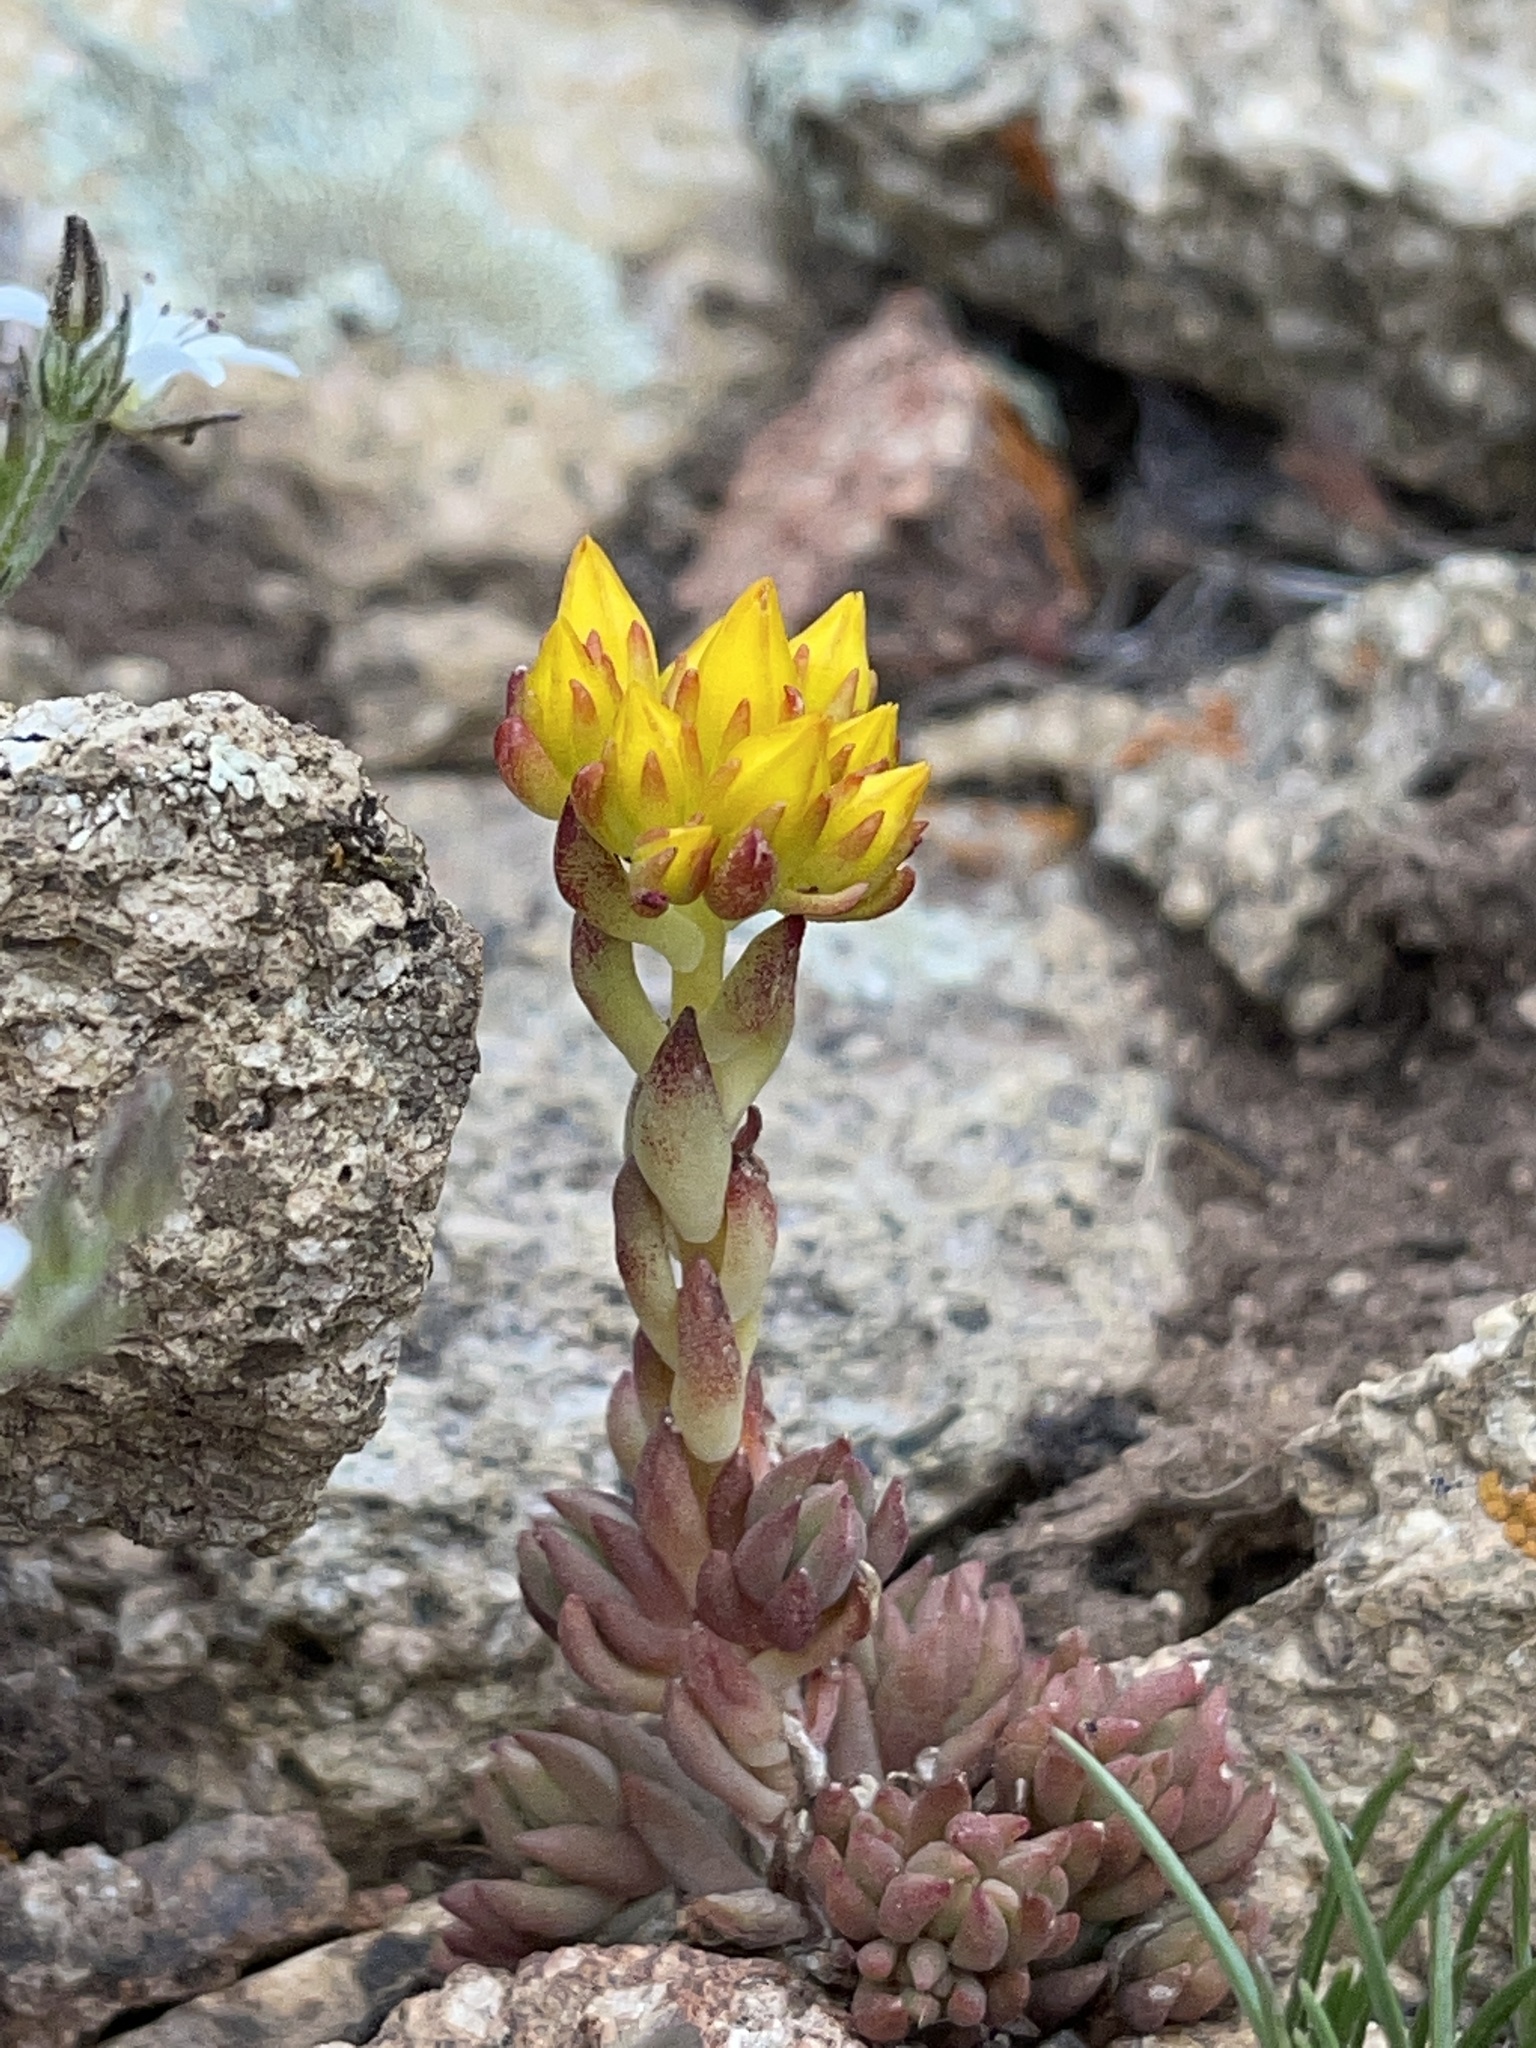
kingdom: Plantae
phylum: Tracheophyta
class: Magnoliopsida
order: Saxifragales
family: Crassulaceae
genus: Sedum
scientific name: Sedum lanceolatum
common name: Common stonecrop
